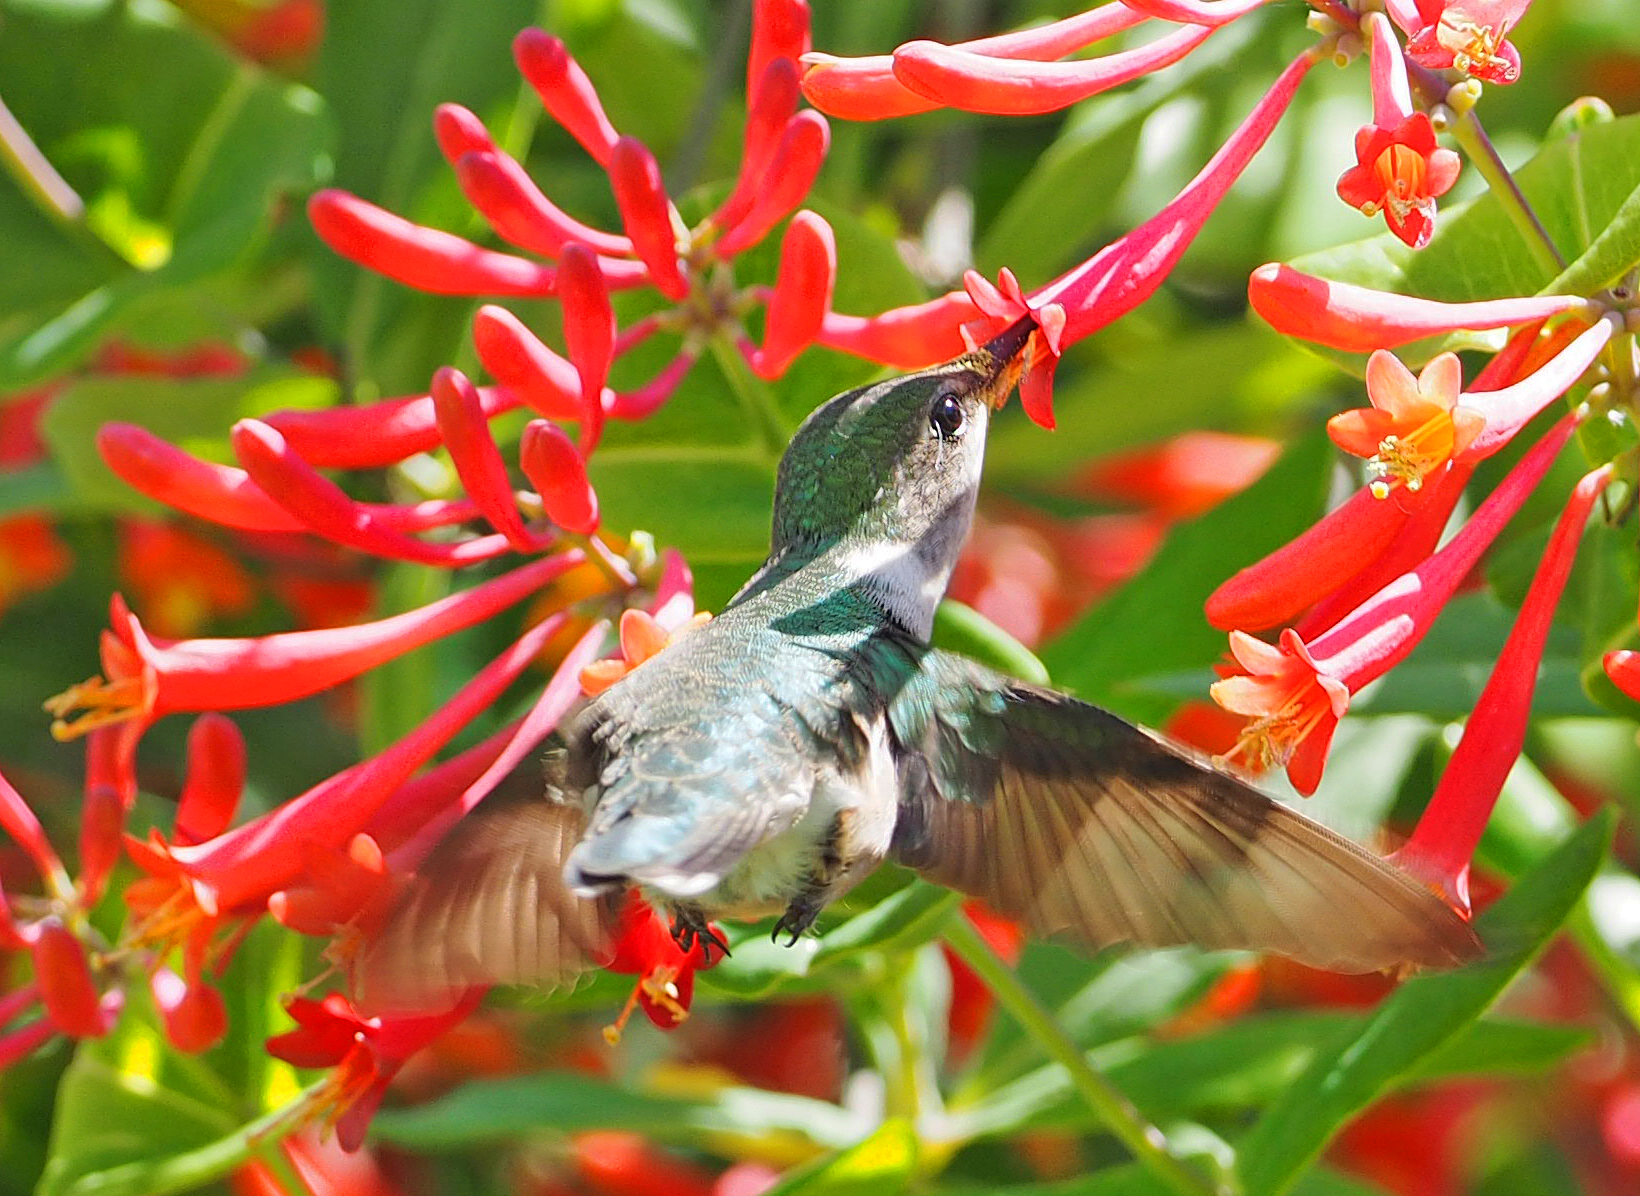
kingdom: Animalia
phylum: Chordata
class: Aves
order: Apodiformes
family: Trochilidae
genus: Archilochus
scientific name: Archilochus colubris
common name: Ruby-throated hummingbird
